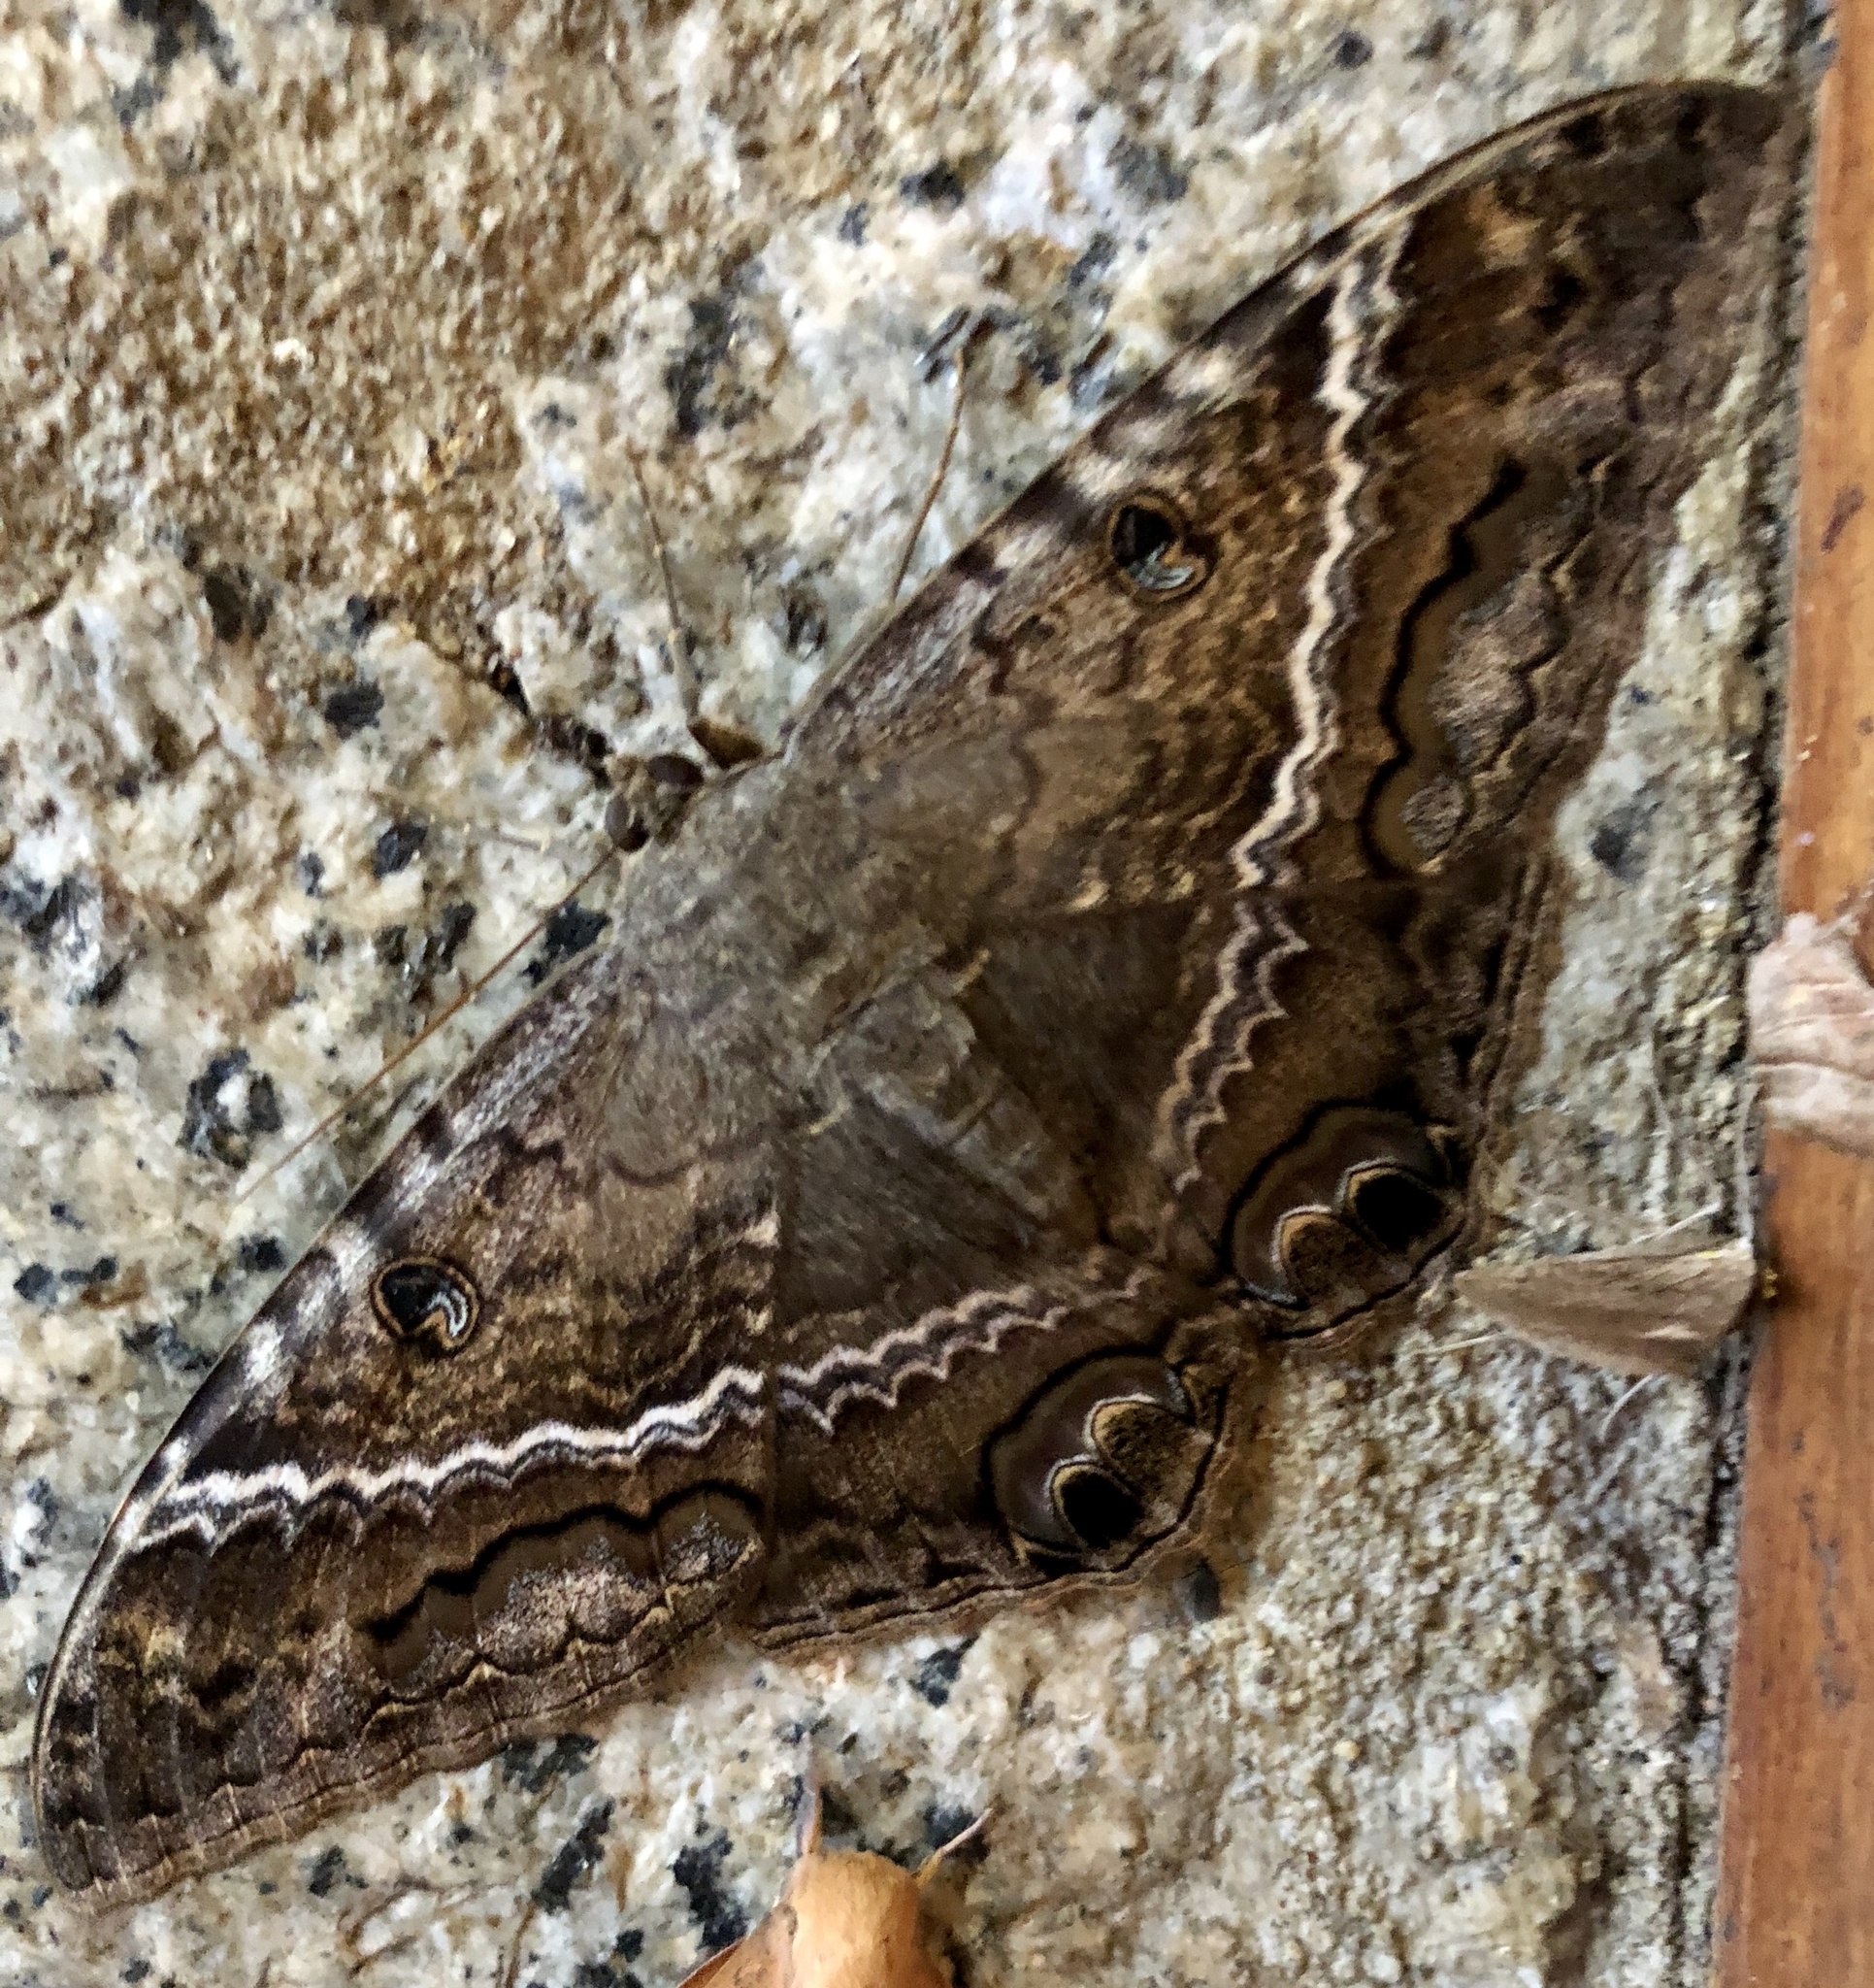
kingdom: Animalia
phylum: Arthropoda
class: Insecta
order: Lepidoptera
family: Erebidae
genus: Ascalapha
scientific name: Ascalapha odorata
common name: Black witch
